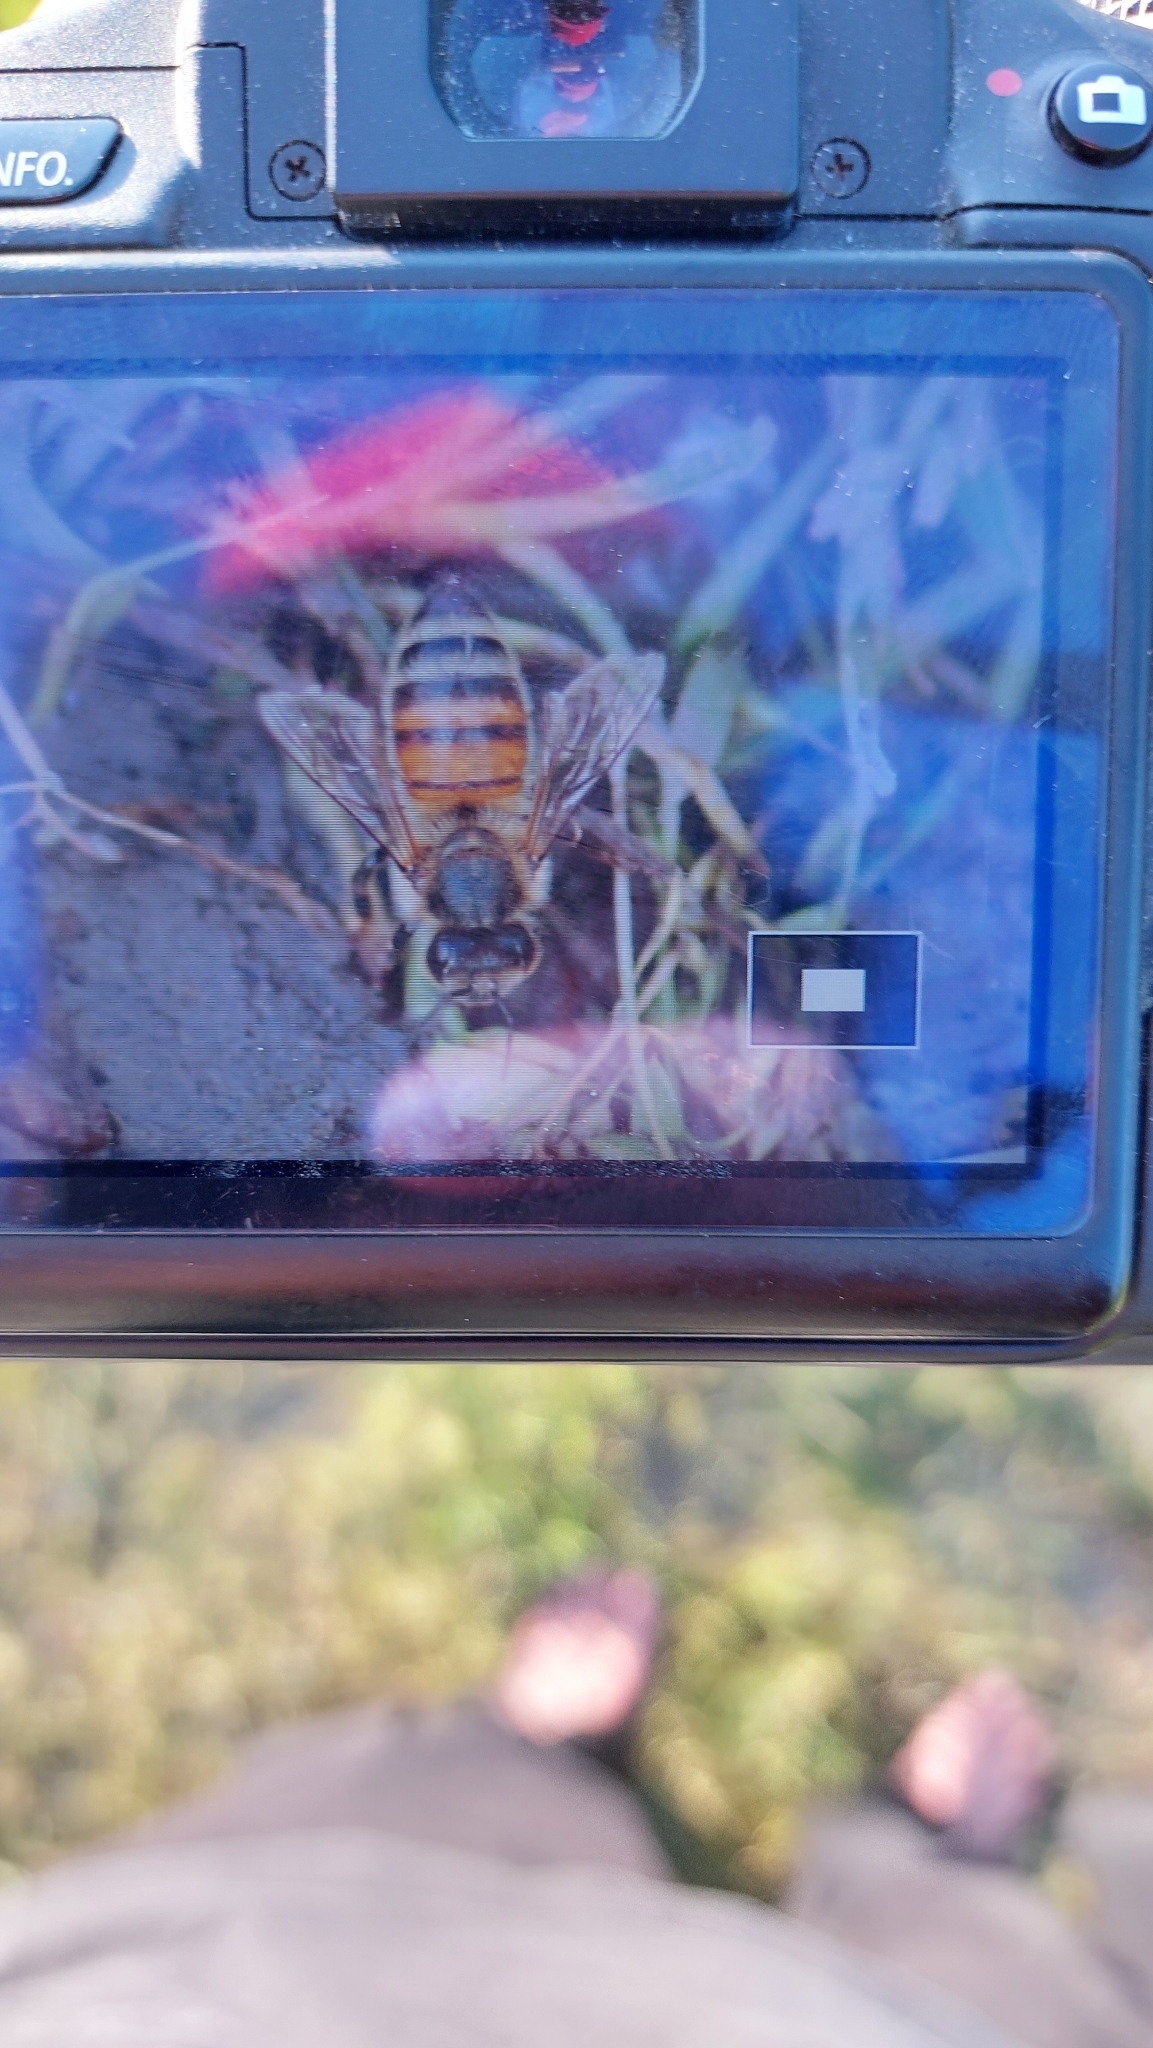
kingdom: Animalia
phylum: Arthropoda
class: Insecta
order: Hymenoptera
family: Apidae
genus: Apis
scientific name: Apis mellifera
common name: Honey bee
